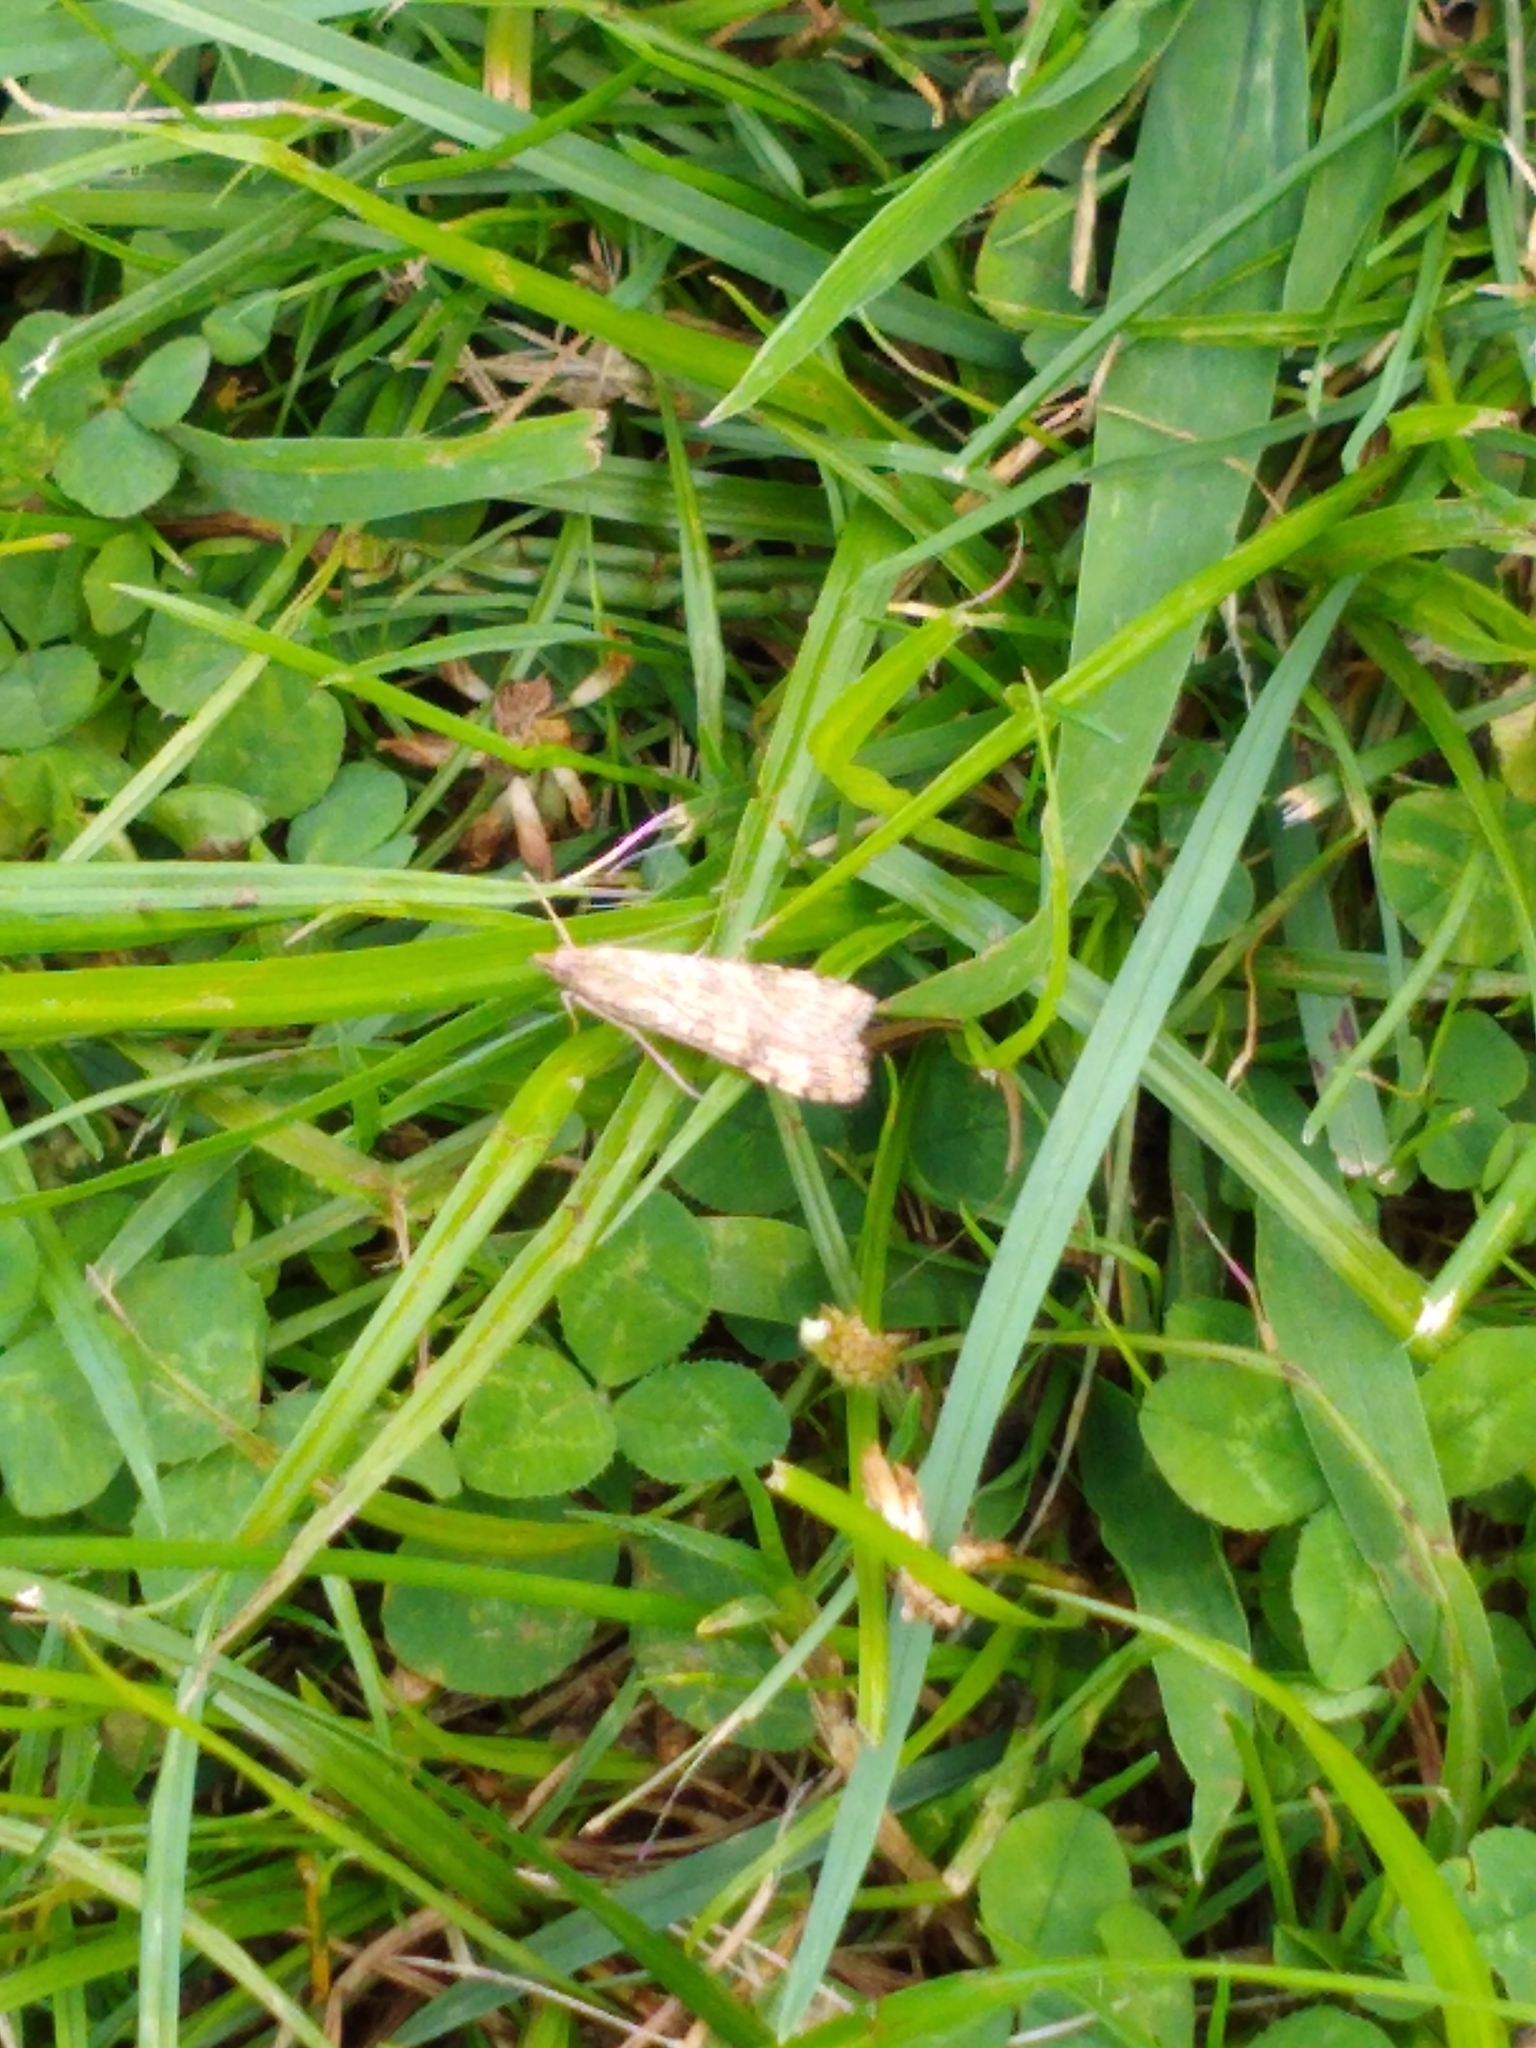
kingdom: Animalia
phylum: Arthropoda
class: Insecta
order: Lepidoptera
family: Crambidae
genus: Nomophila
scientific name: Nomophila nearctica
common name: American rush veneer
